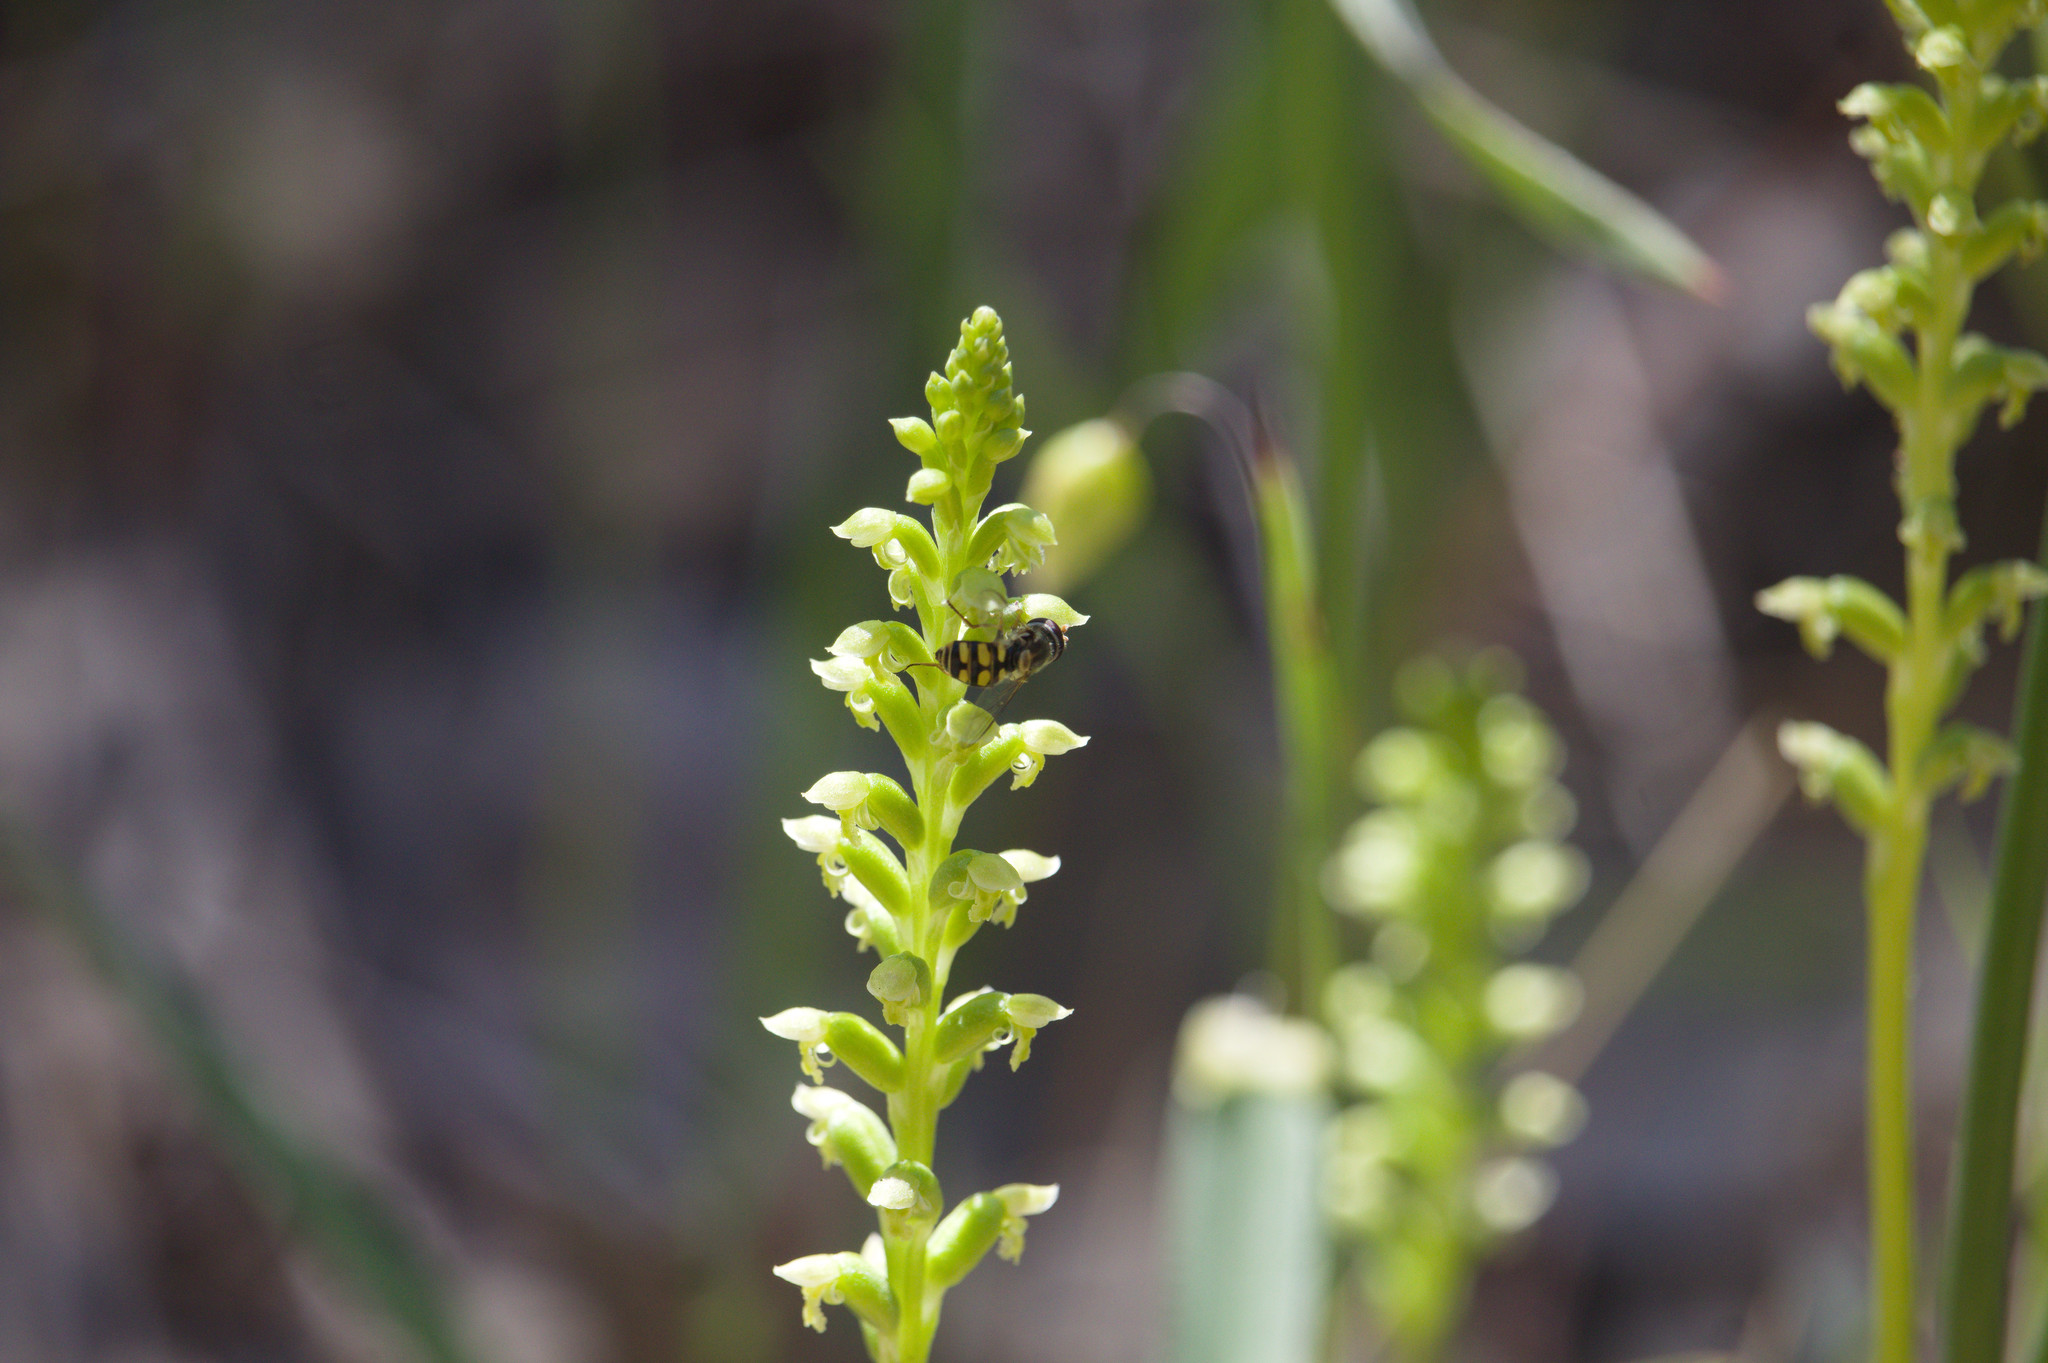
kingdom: Plantae
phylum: Tracheophyta
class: Liliopsida
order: Asparagales
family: Orchidaceae
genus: Microtis
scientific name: Microtis media
